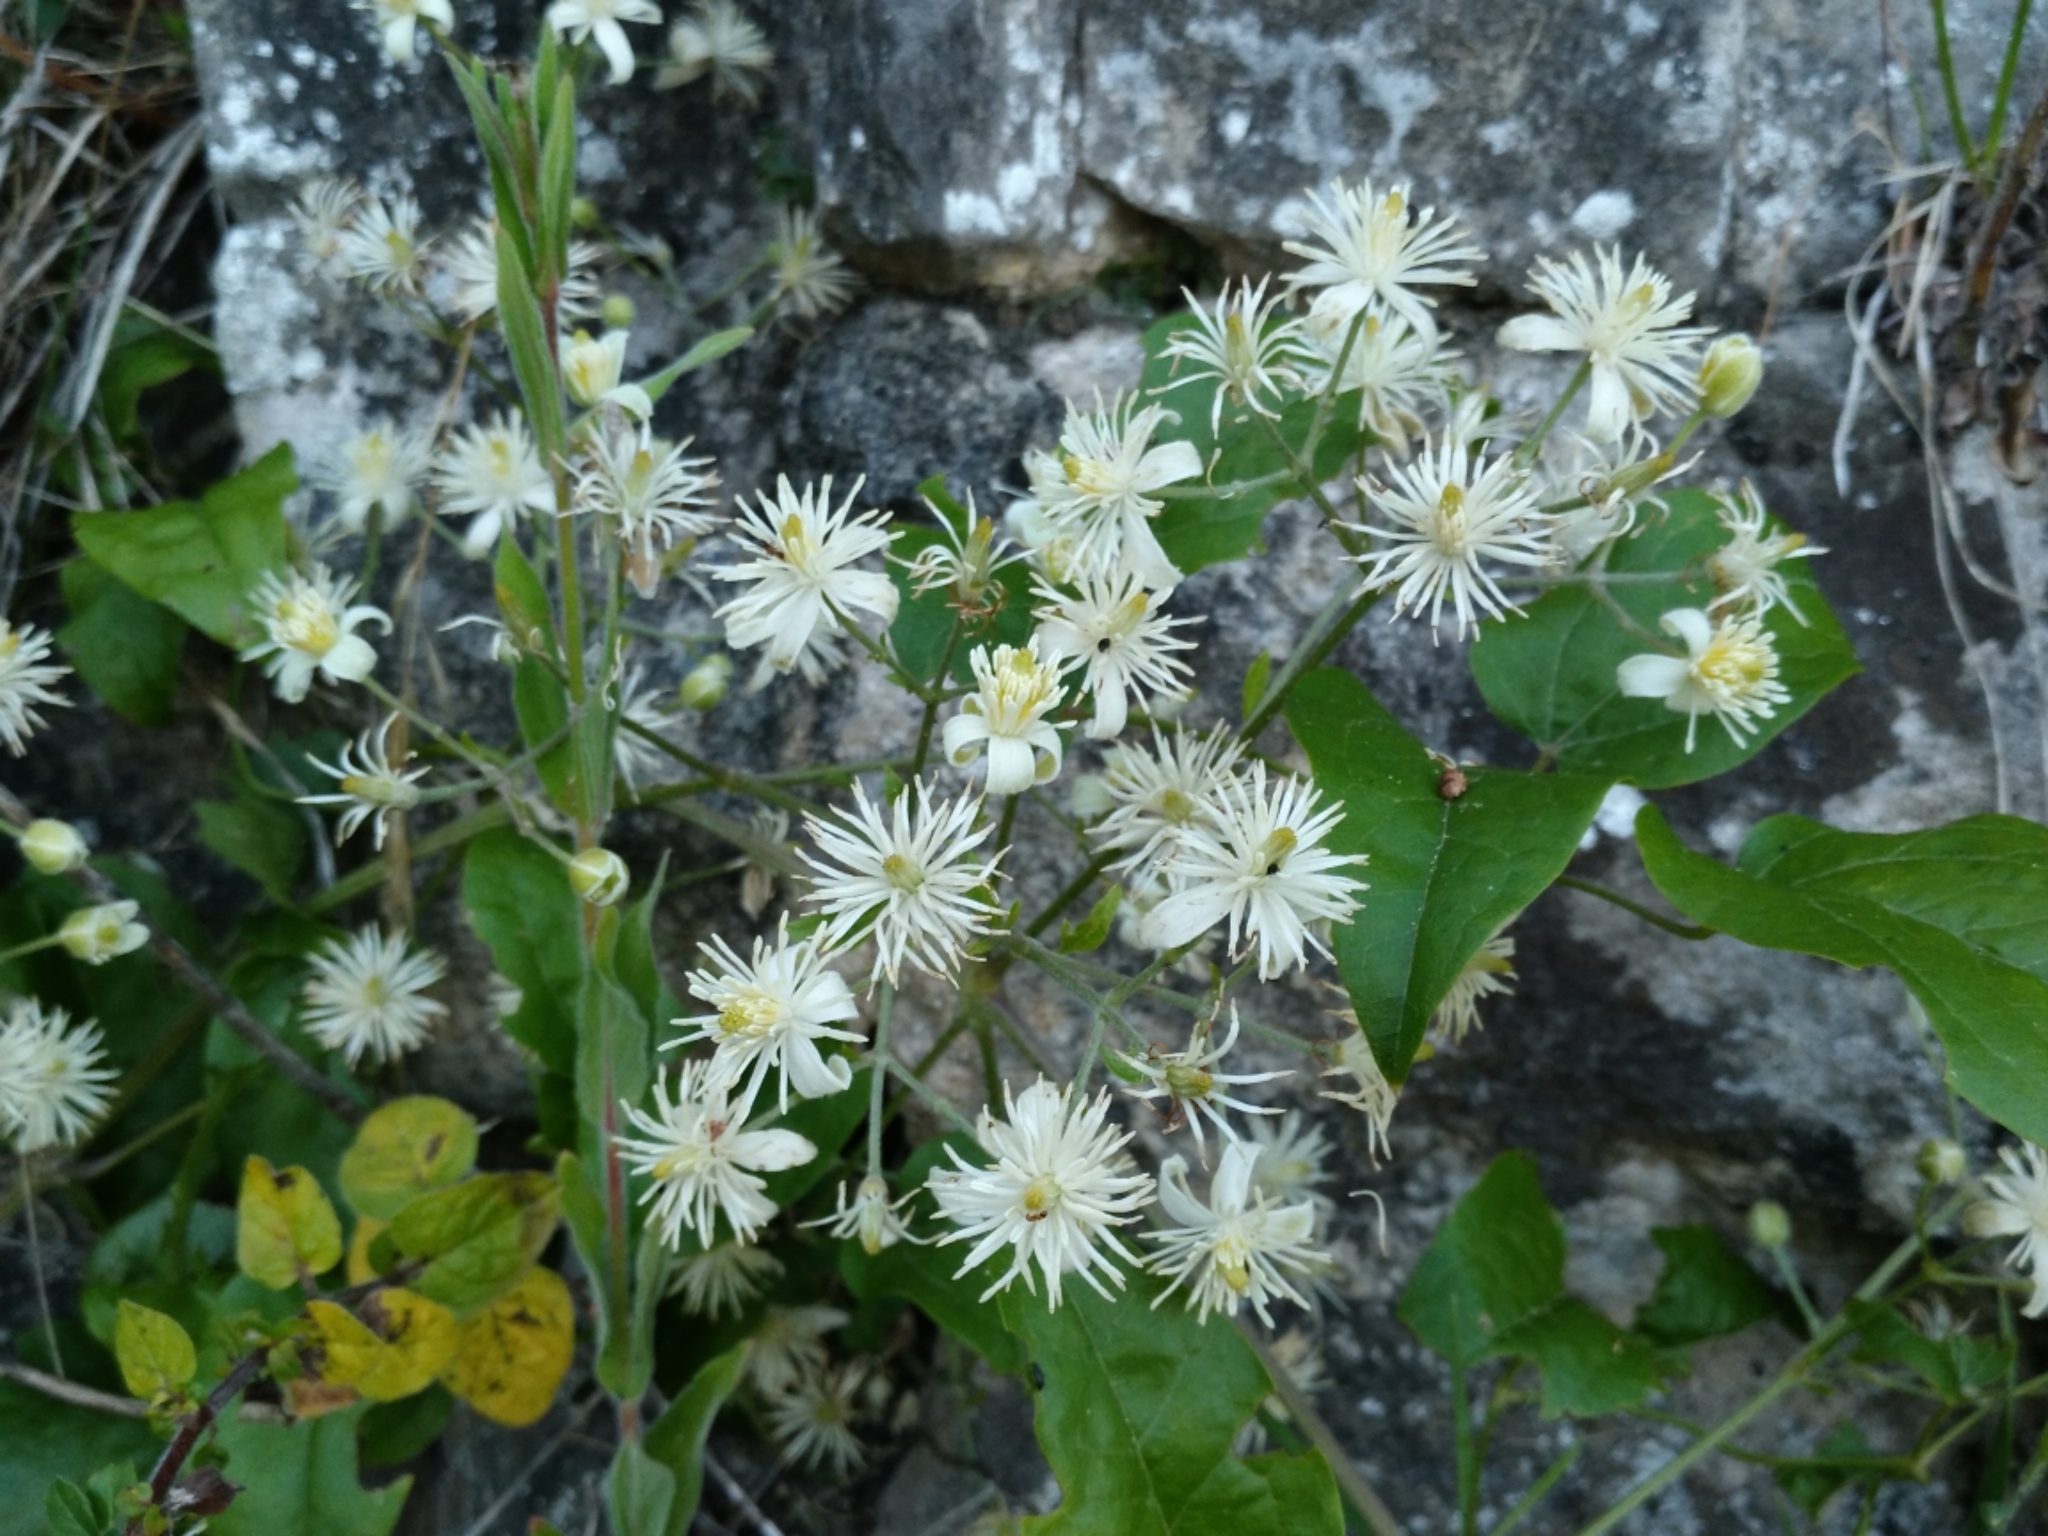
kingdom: Plantae
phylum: Tracheophyta
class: Magnoliopsida
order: Ranunculales
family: Ranunculaceae
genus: Clematis
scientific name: Clematis vitalba
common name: Evergreen clematis
